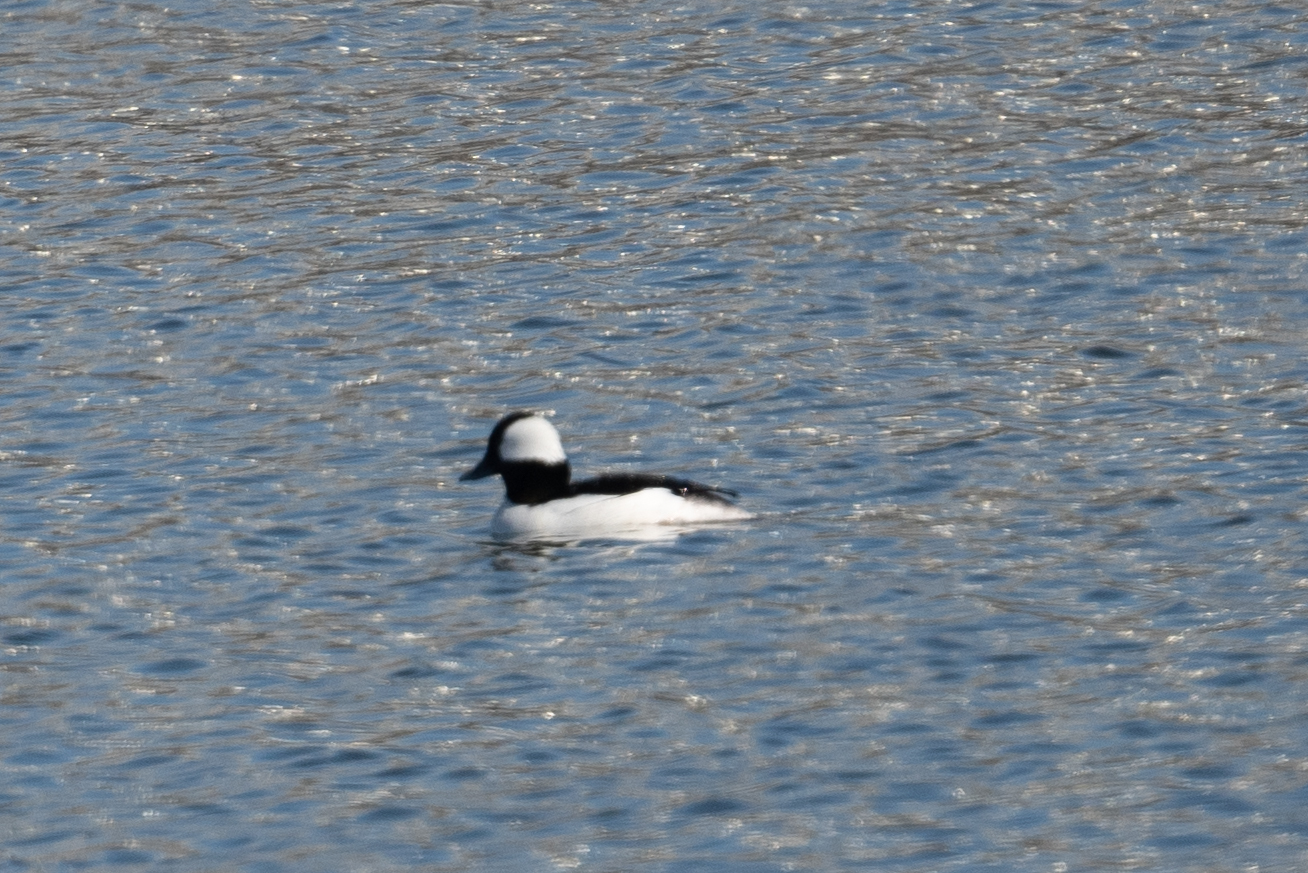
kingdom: Animalia
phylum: Chordata
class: Aves
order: Anseriformes
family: Anatidae
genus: Bucephala
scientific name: Bucephala albeola
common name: Bufflehead
